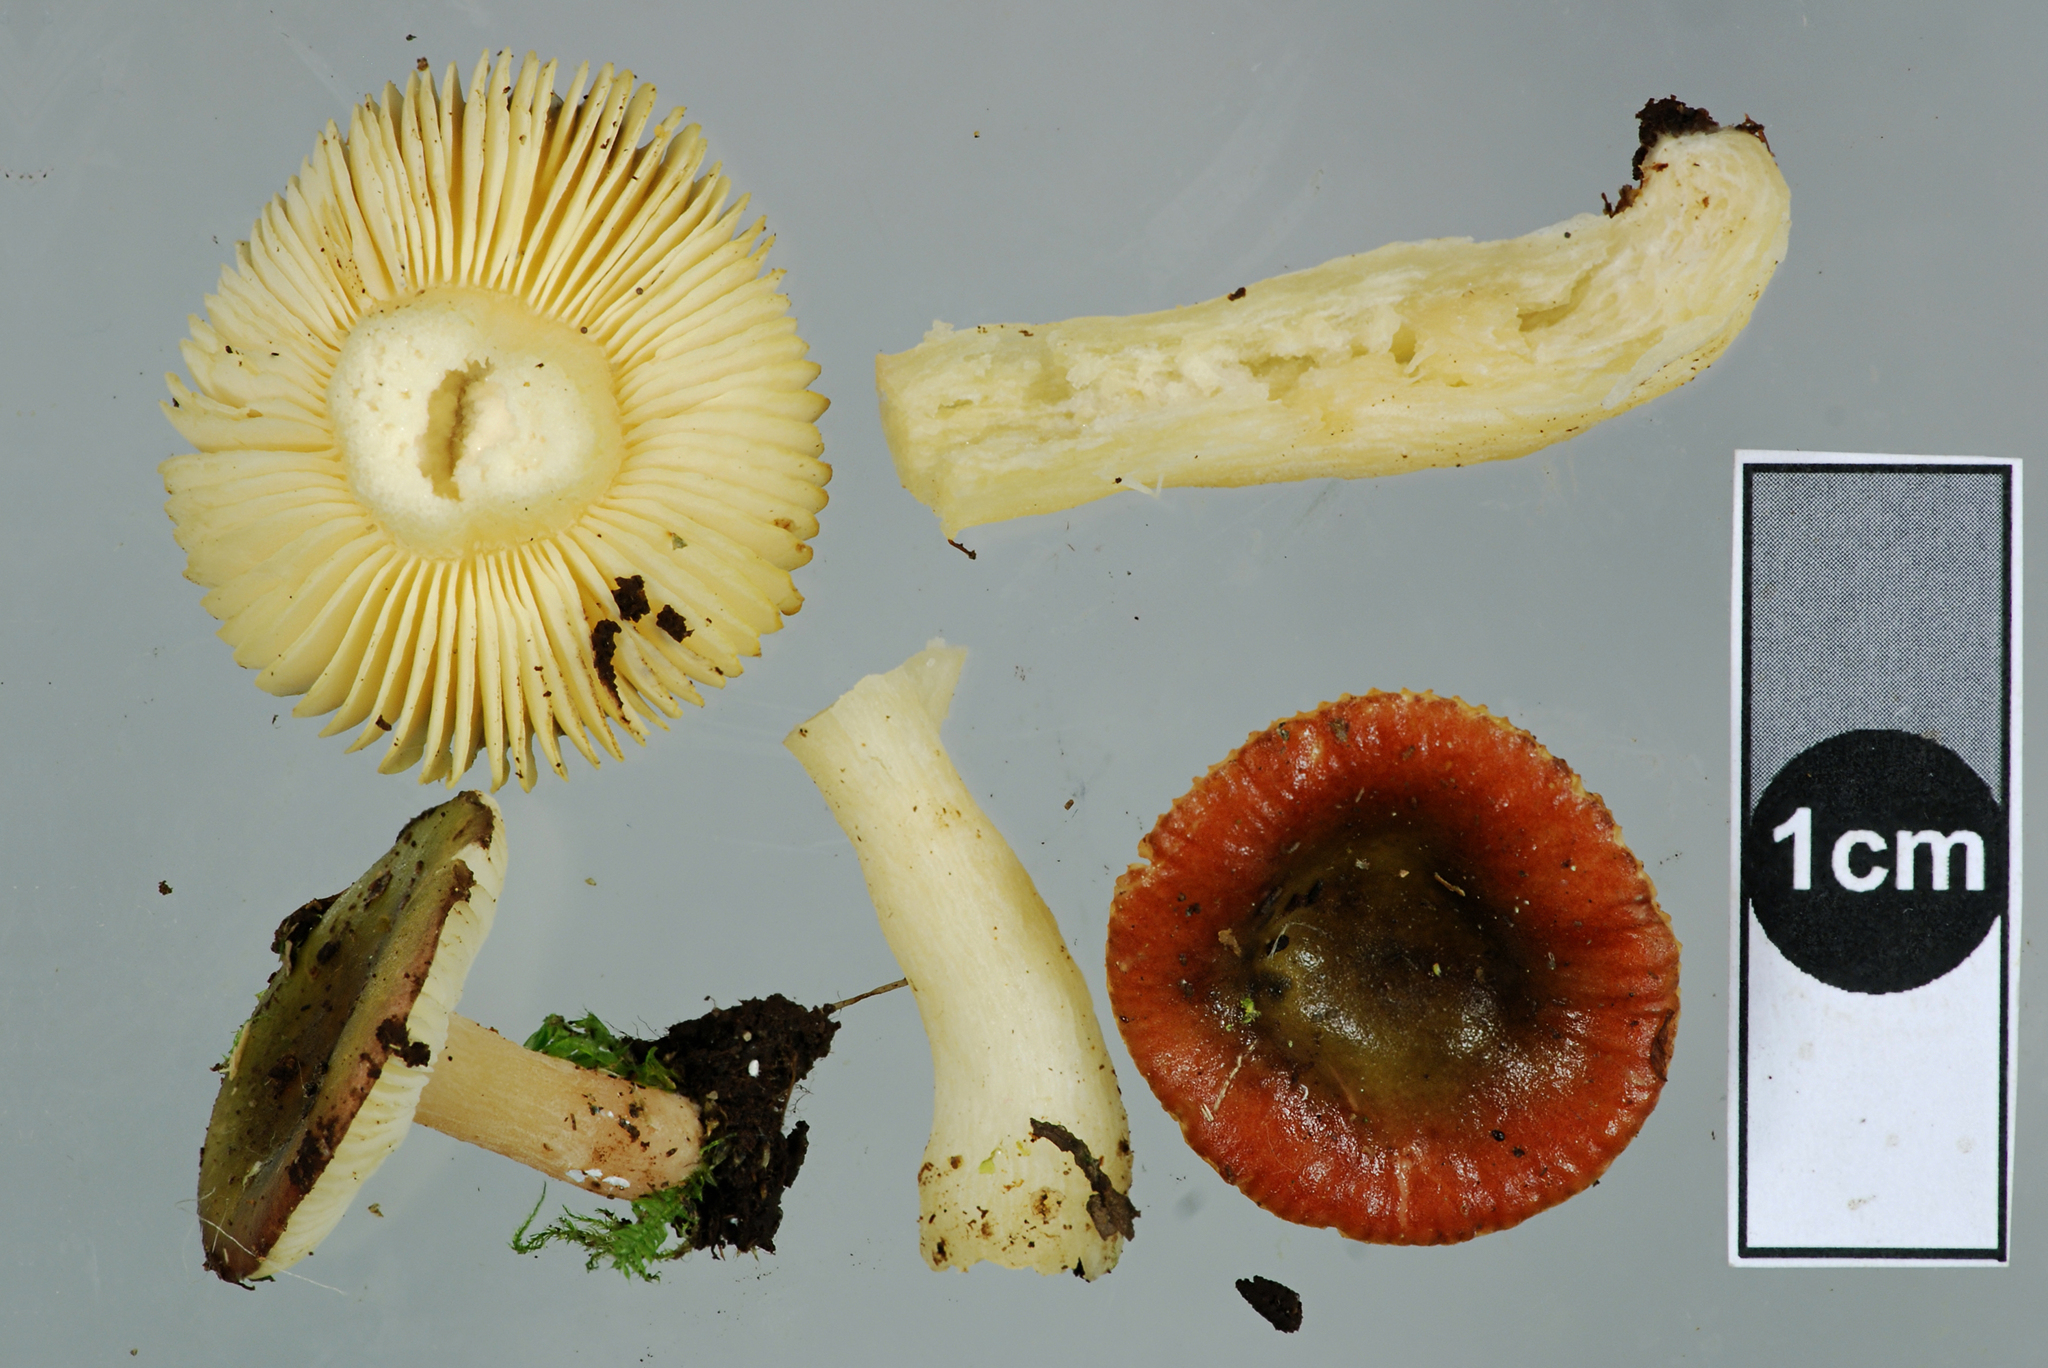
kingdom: Fungi
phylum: Basidiomycota
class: Agaricomycetes
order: Russulales
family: Russulaceae
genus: Russula
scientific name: Russula laccata
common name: Willow brittlegill
